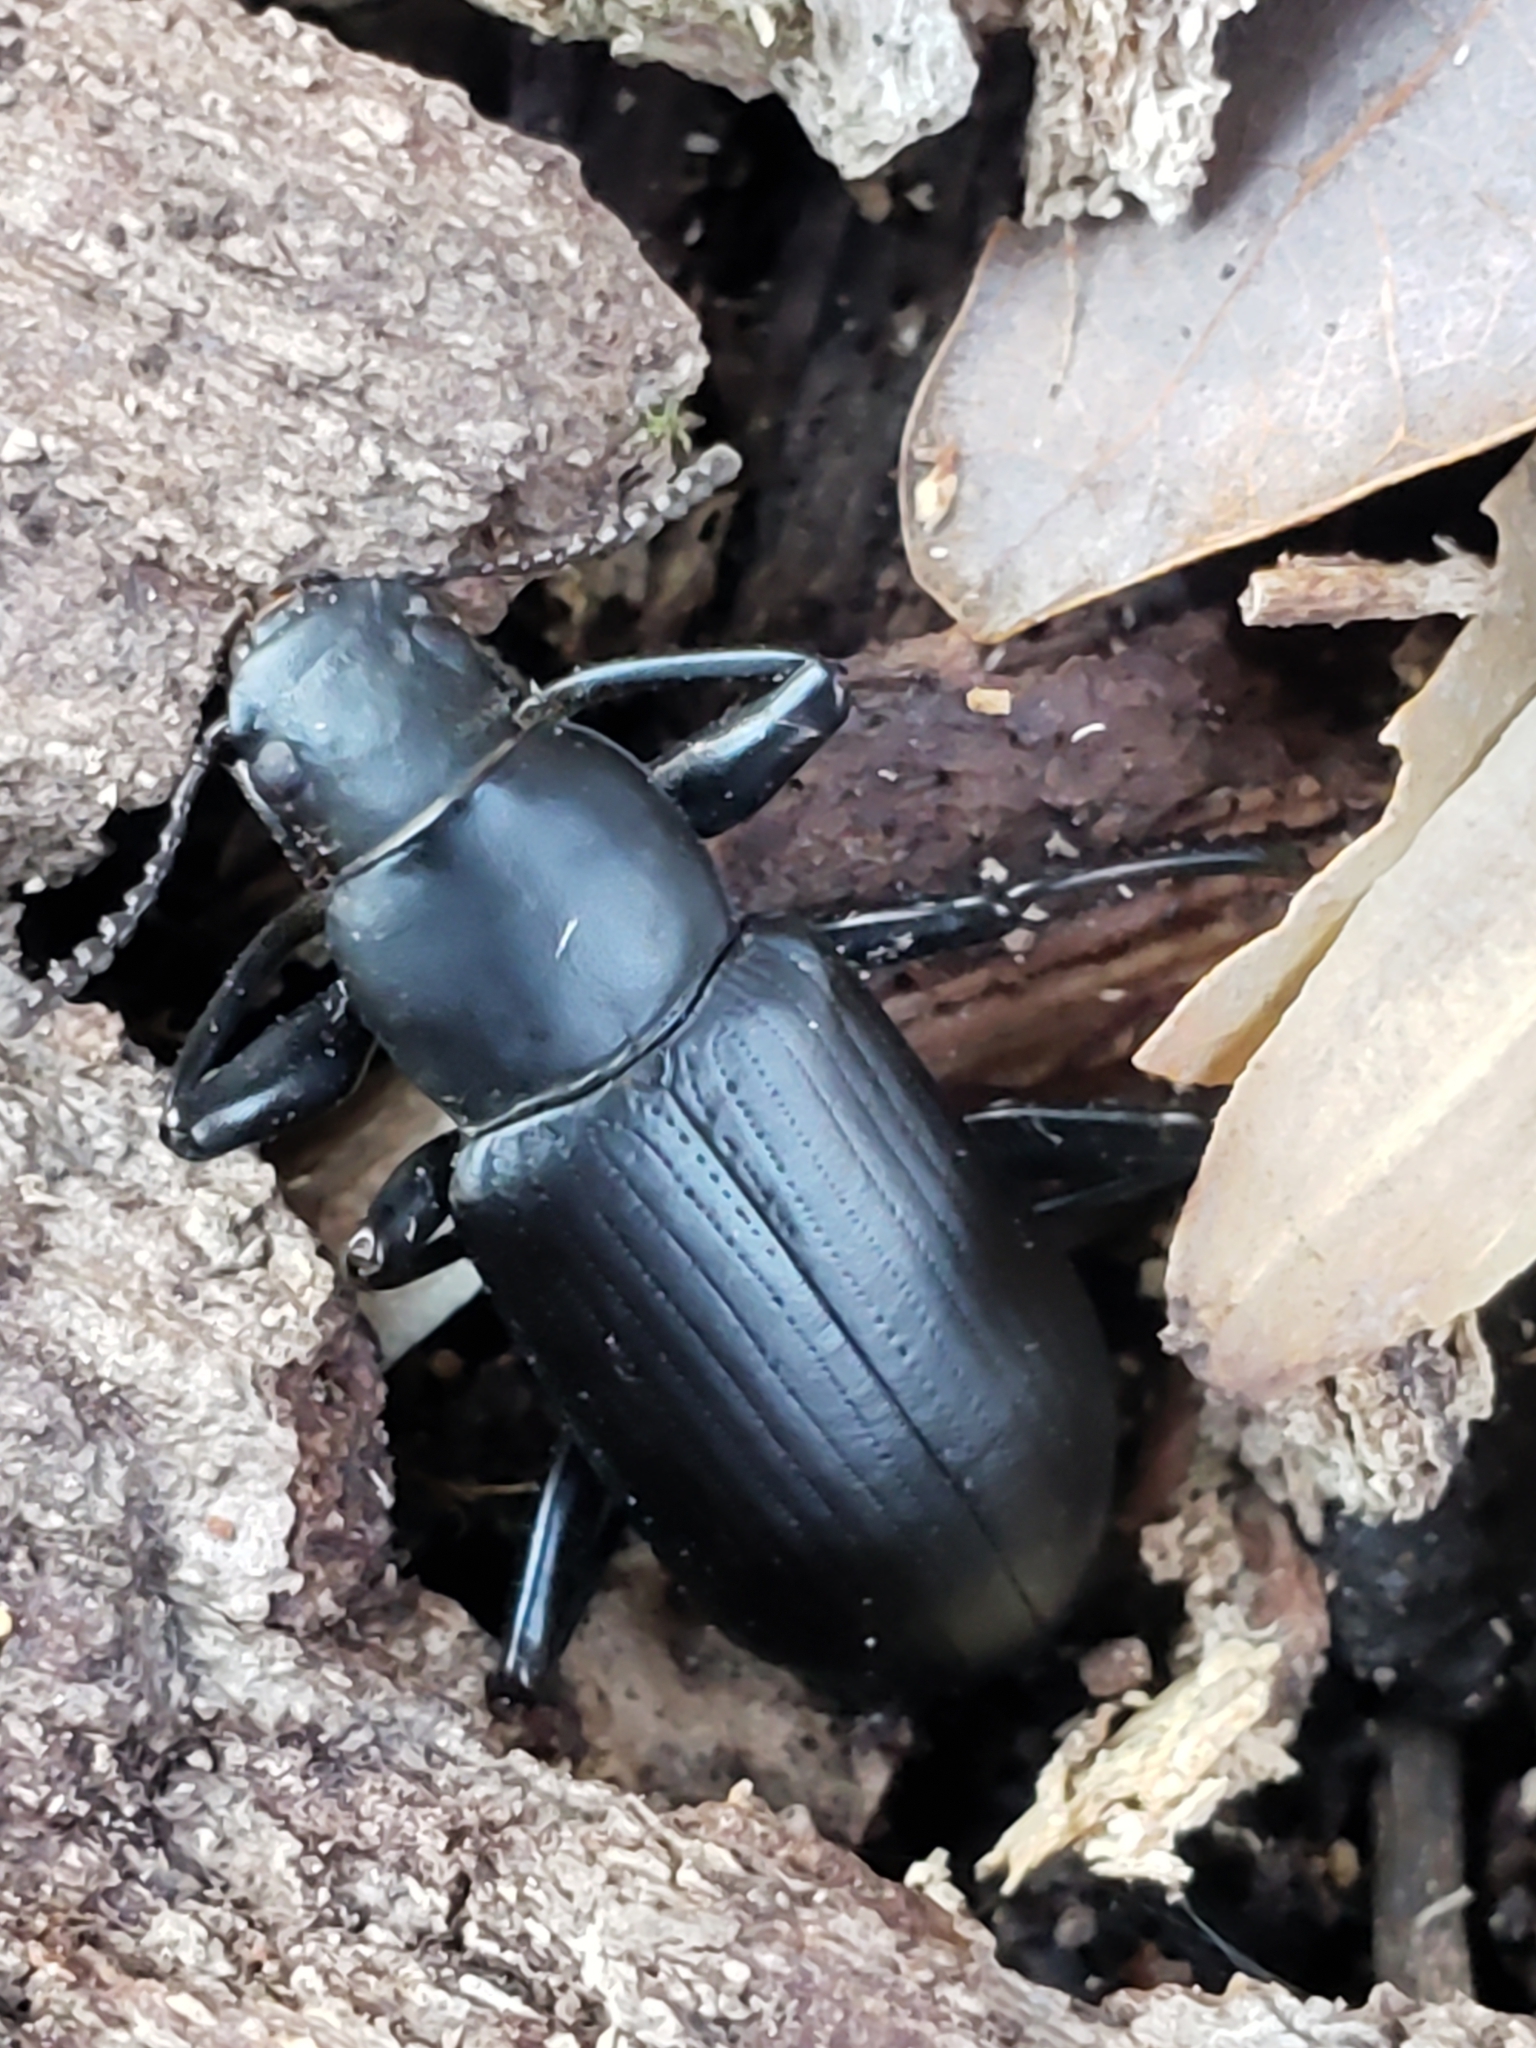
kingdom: Animalia
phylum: Arthropoda
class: Insecta
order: Coleoptera
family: Tenebrionidae
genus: Alobates
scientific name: Alobates
